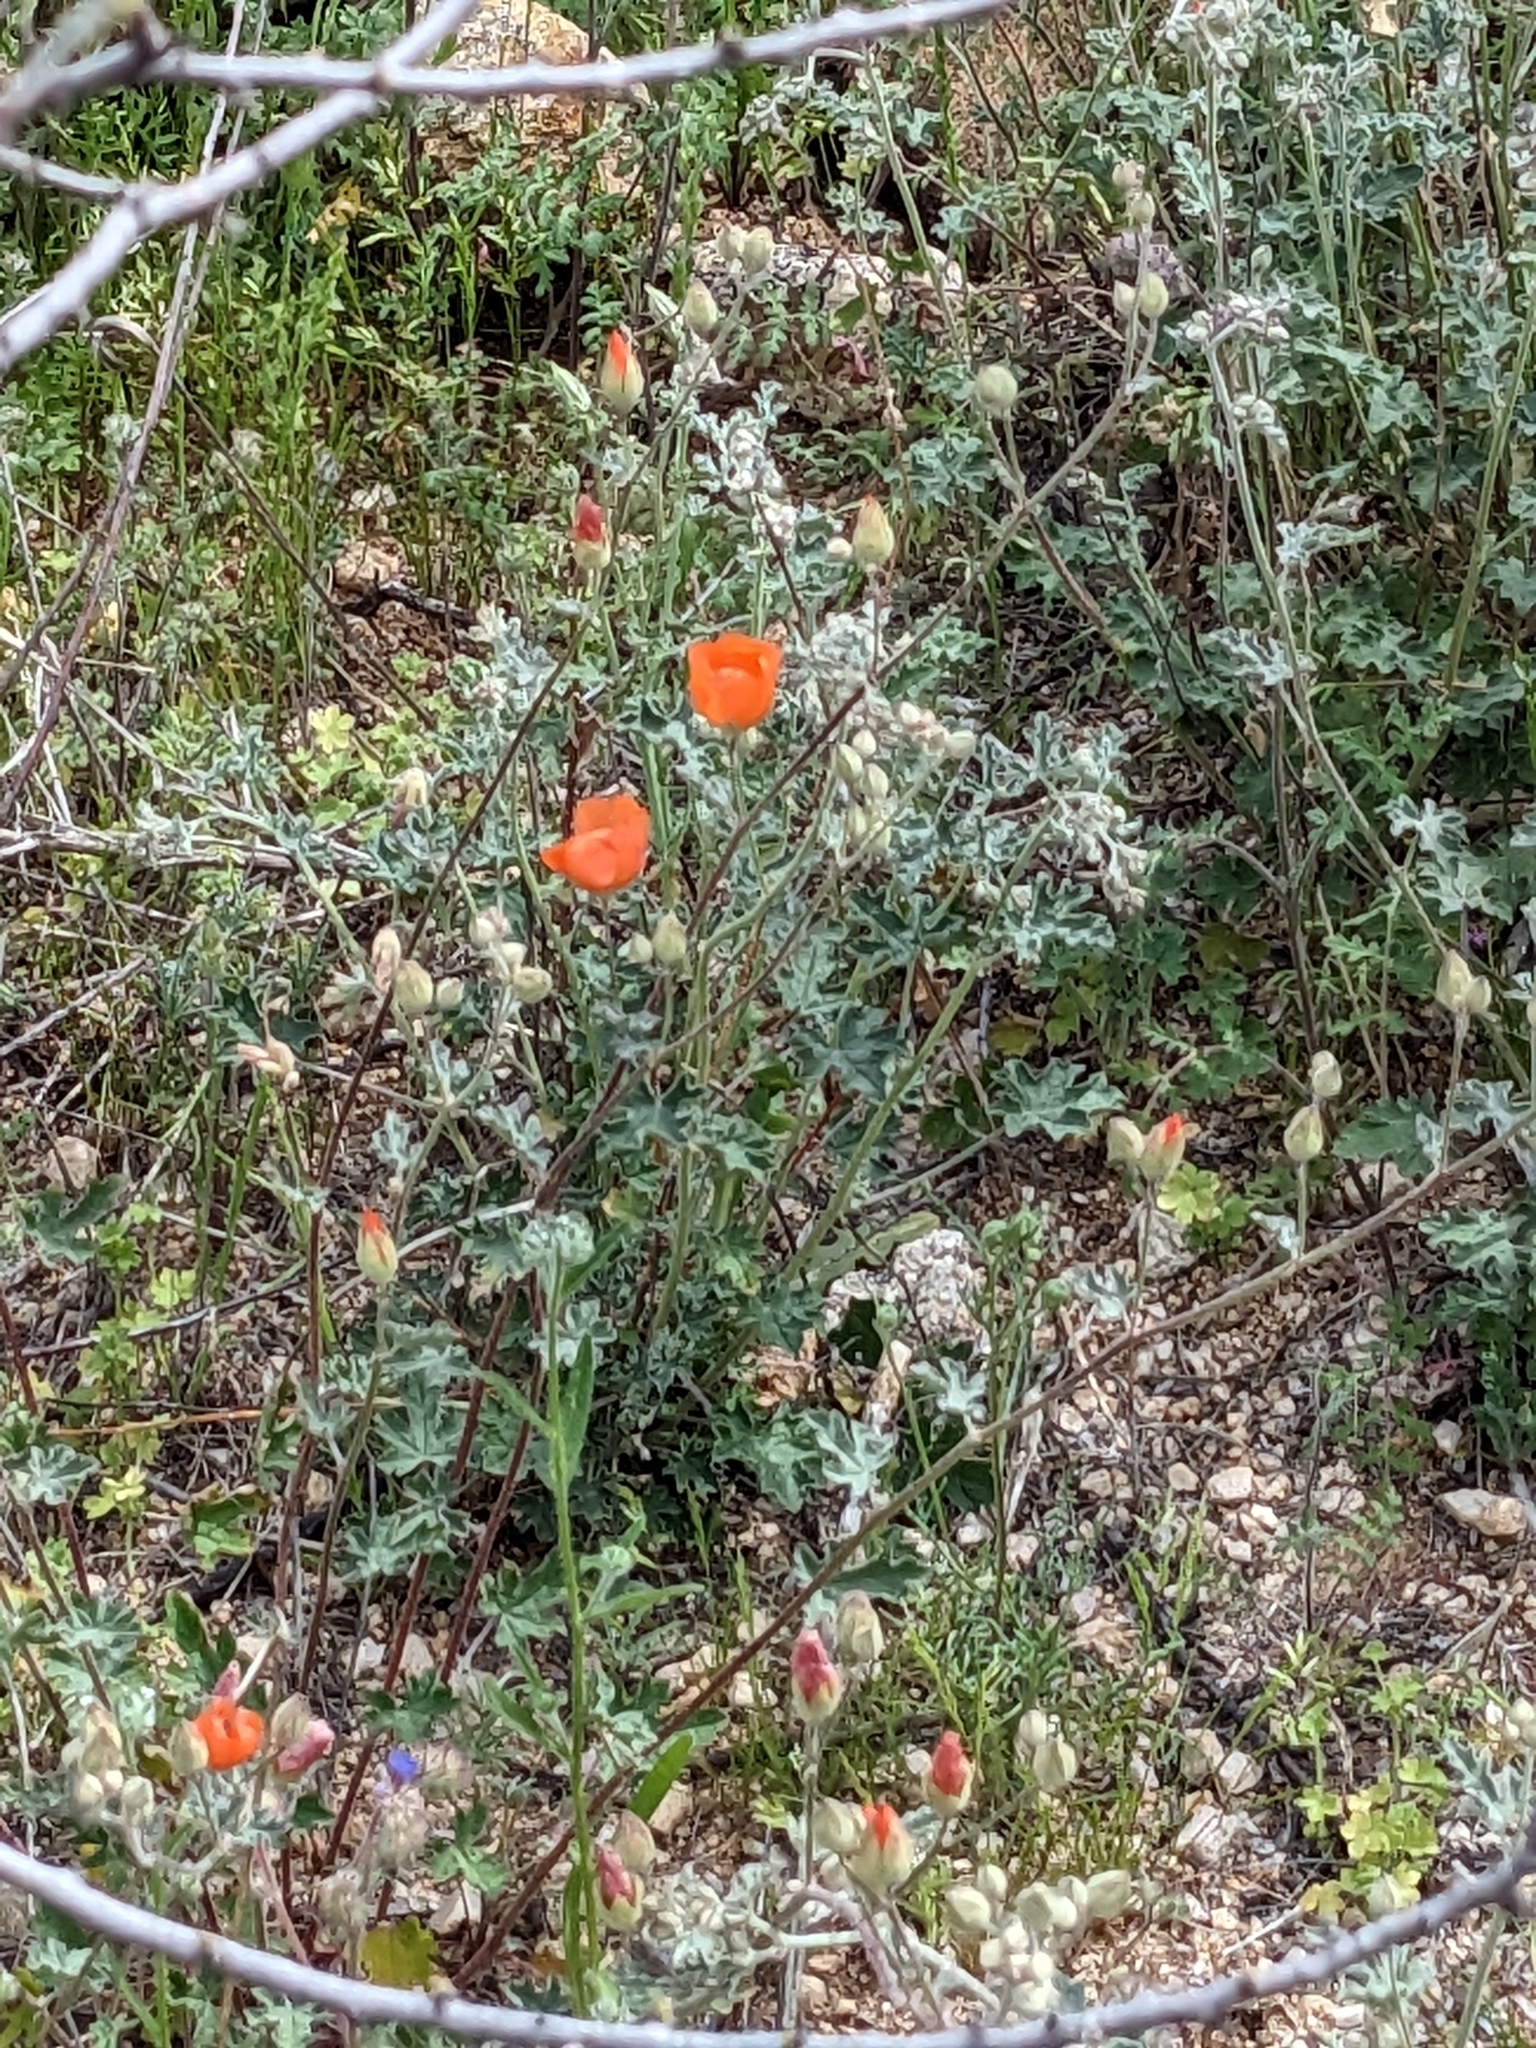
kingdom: Plantae
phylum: Tracheophyta
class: Magnoliopsida
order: Malvales
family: Malvaceae
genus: Sphaeralcea
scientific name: Sphaeralcea laxa
